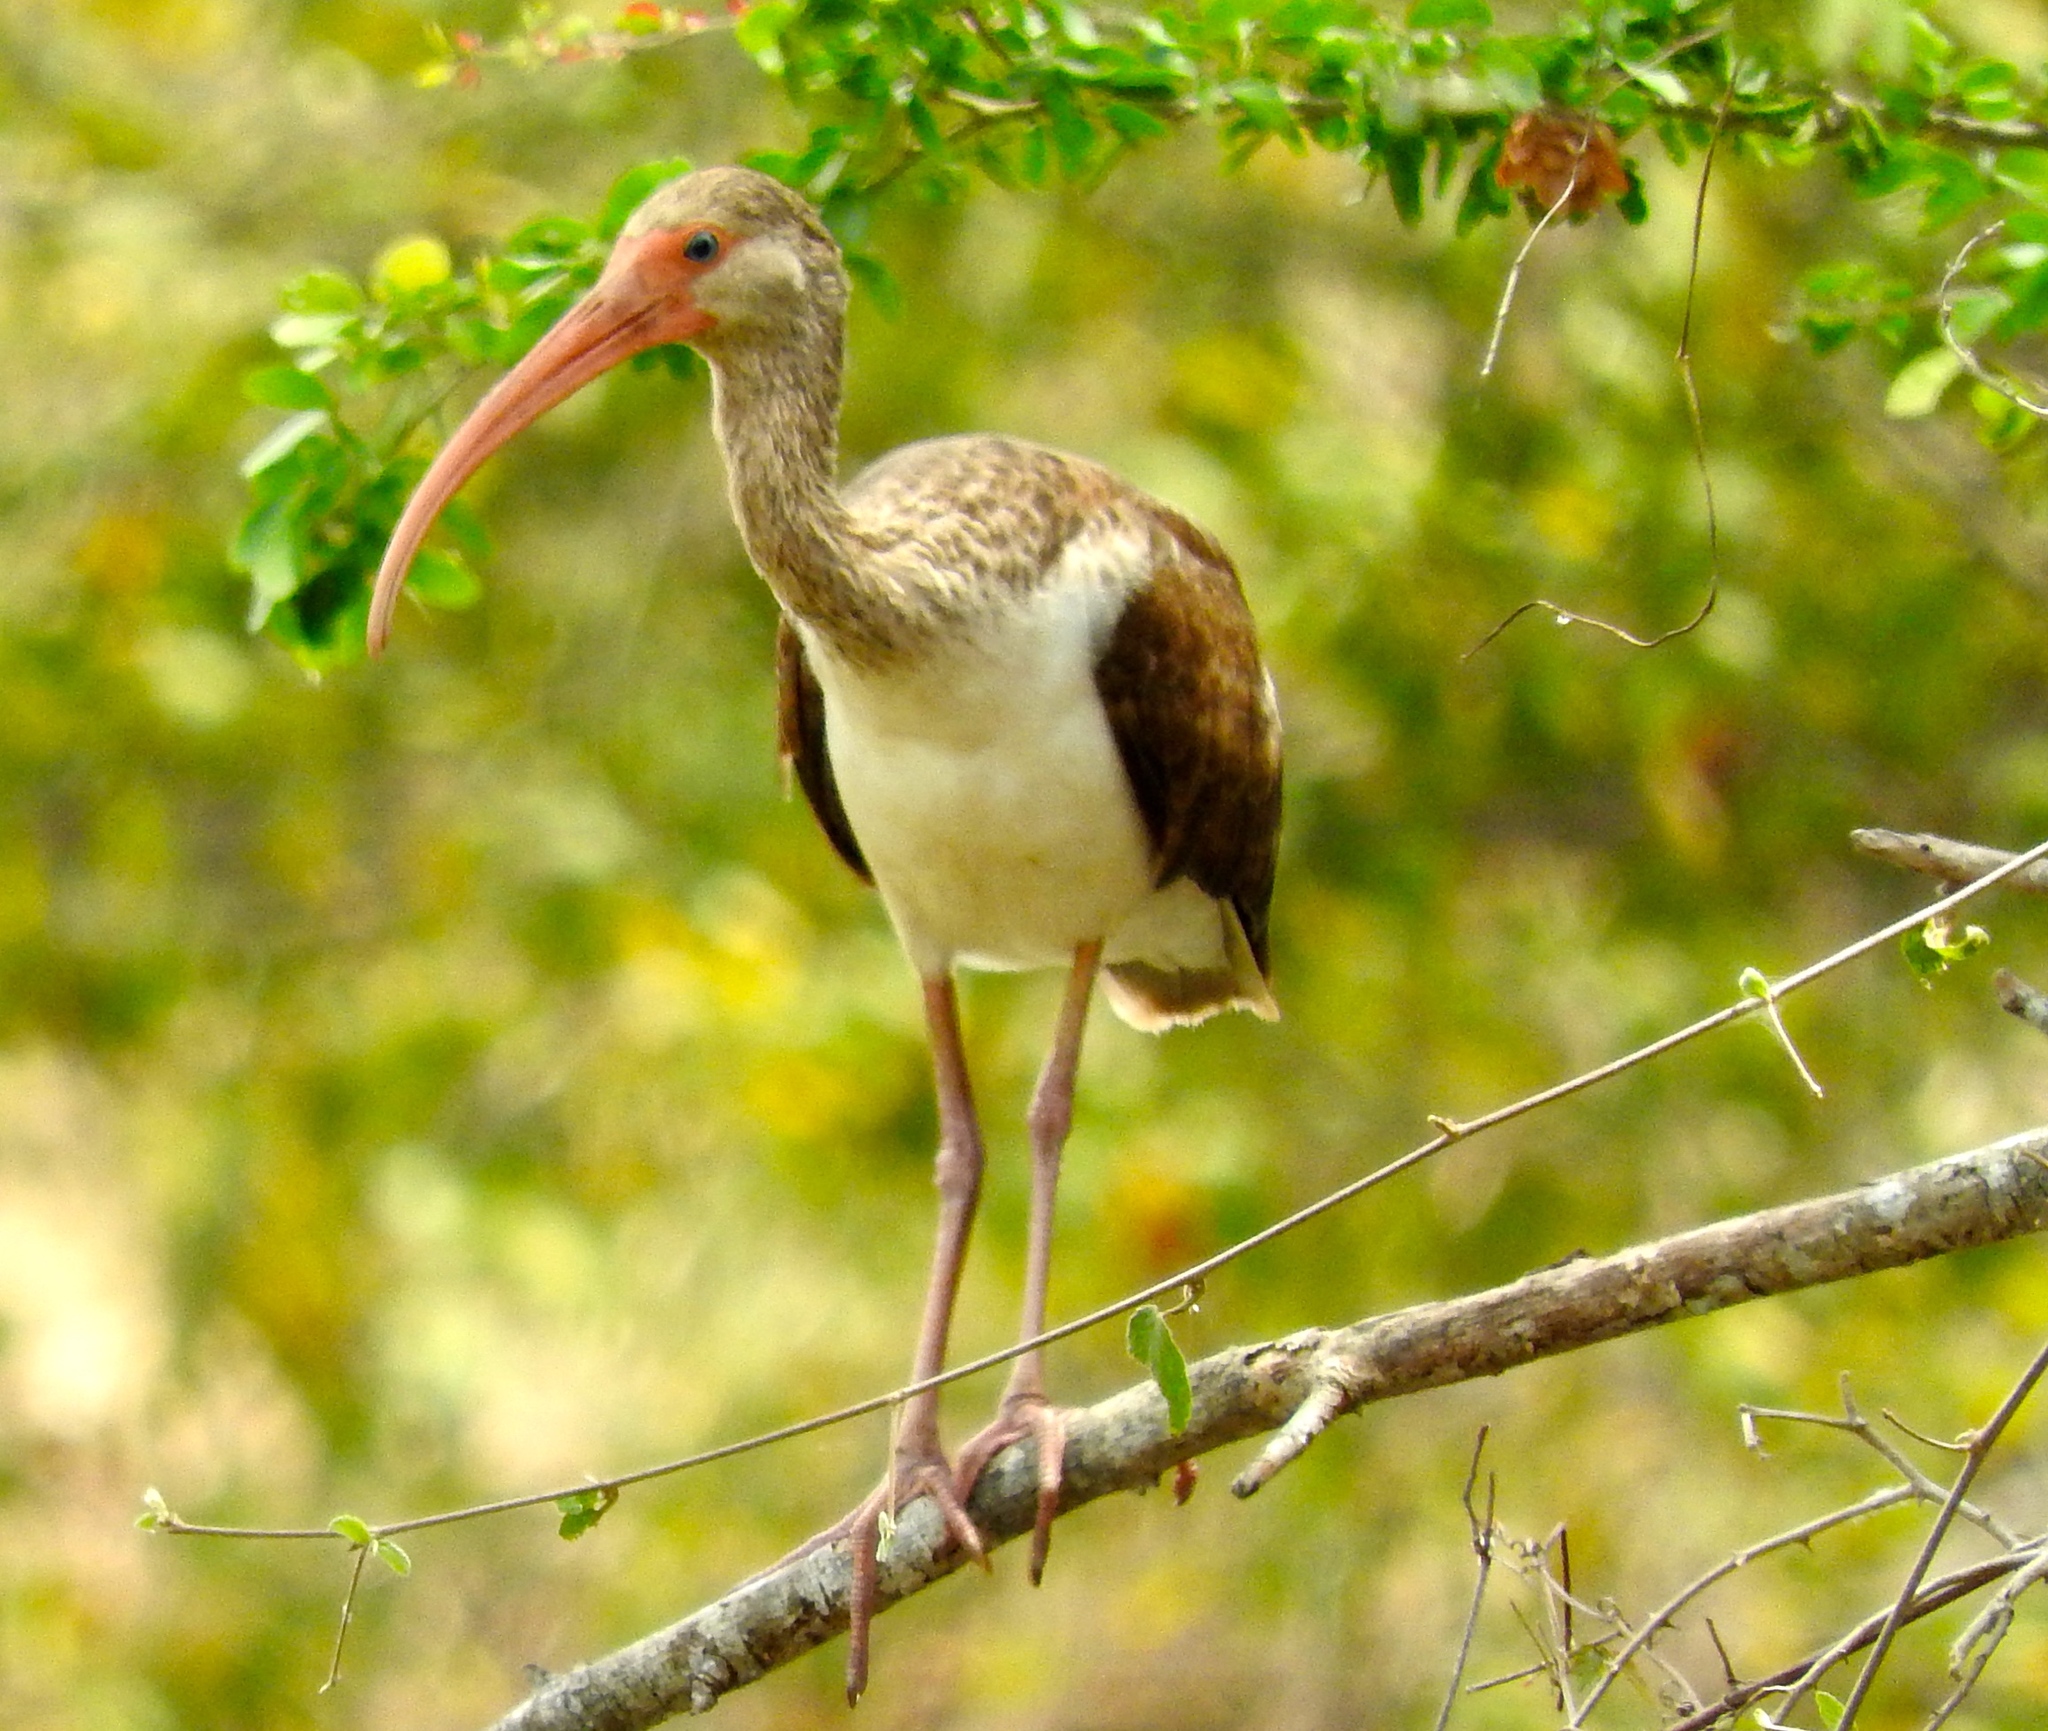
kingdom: Animalia
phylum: Chordata
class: Aves
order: Pelecaniformes
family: Threskiornithidae
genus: Eudocimus
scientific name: Eudocimus albus
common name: White ibis
